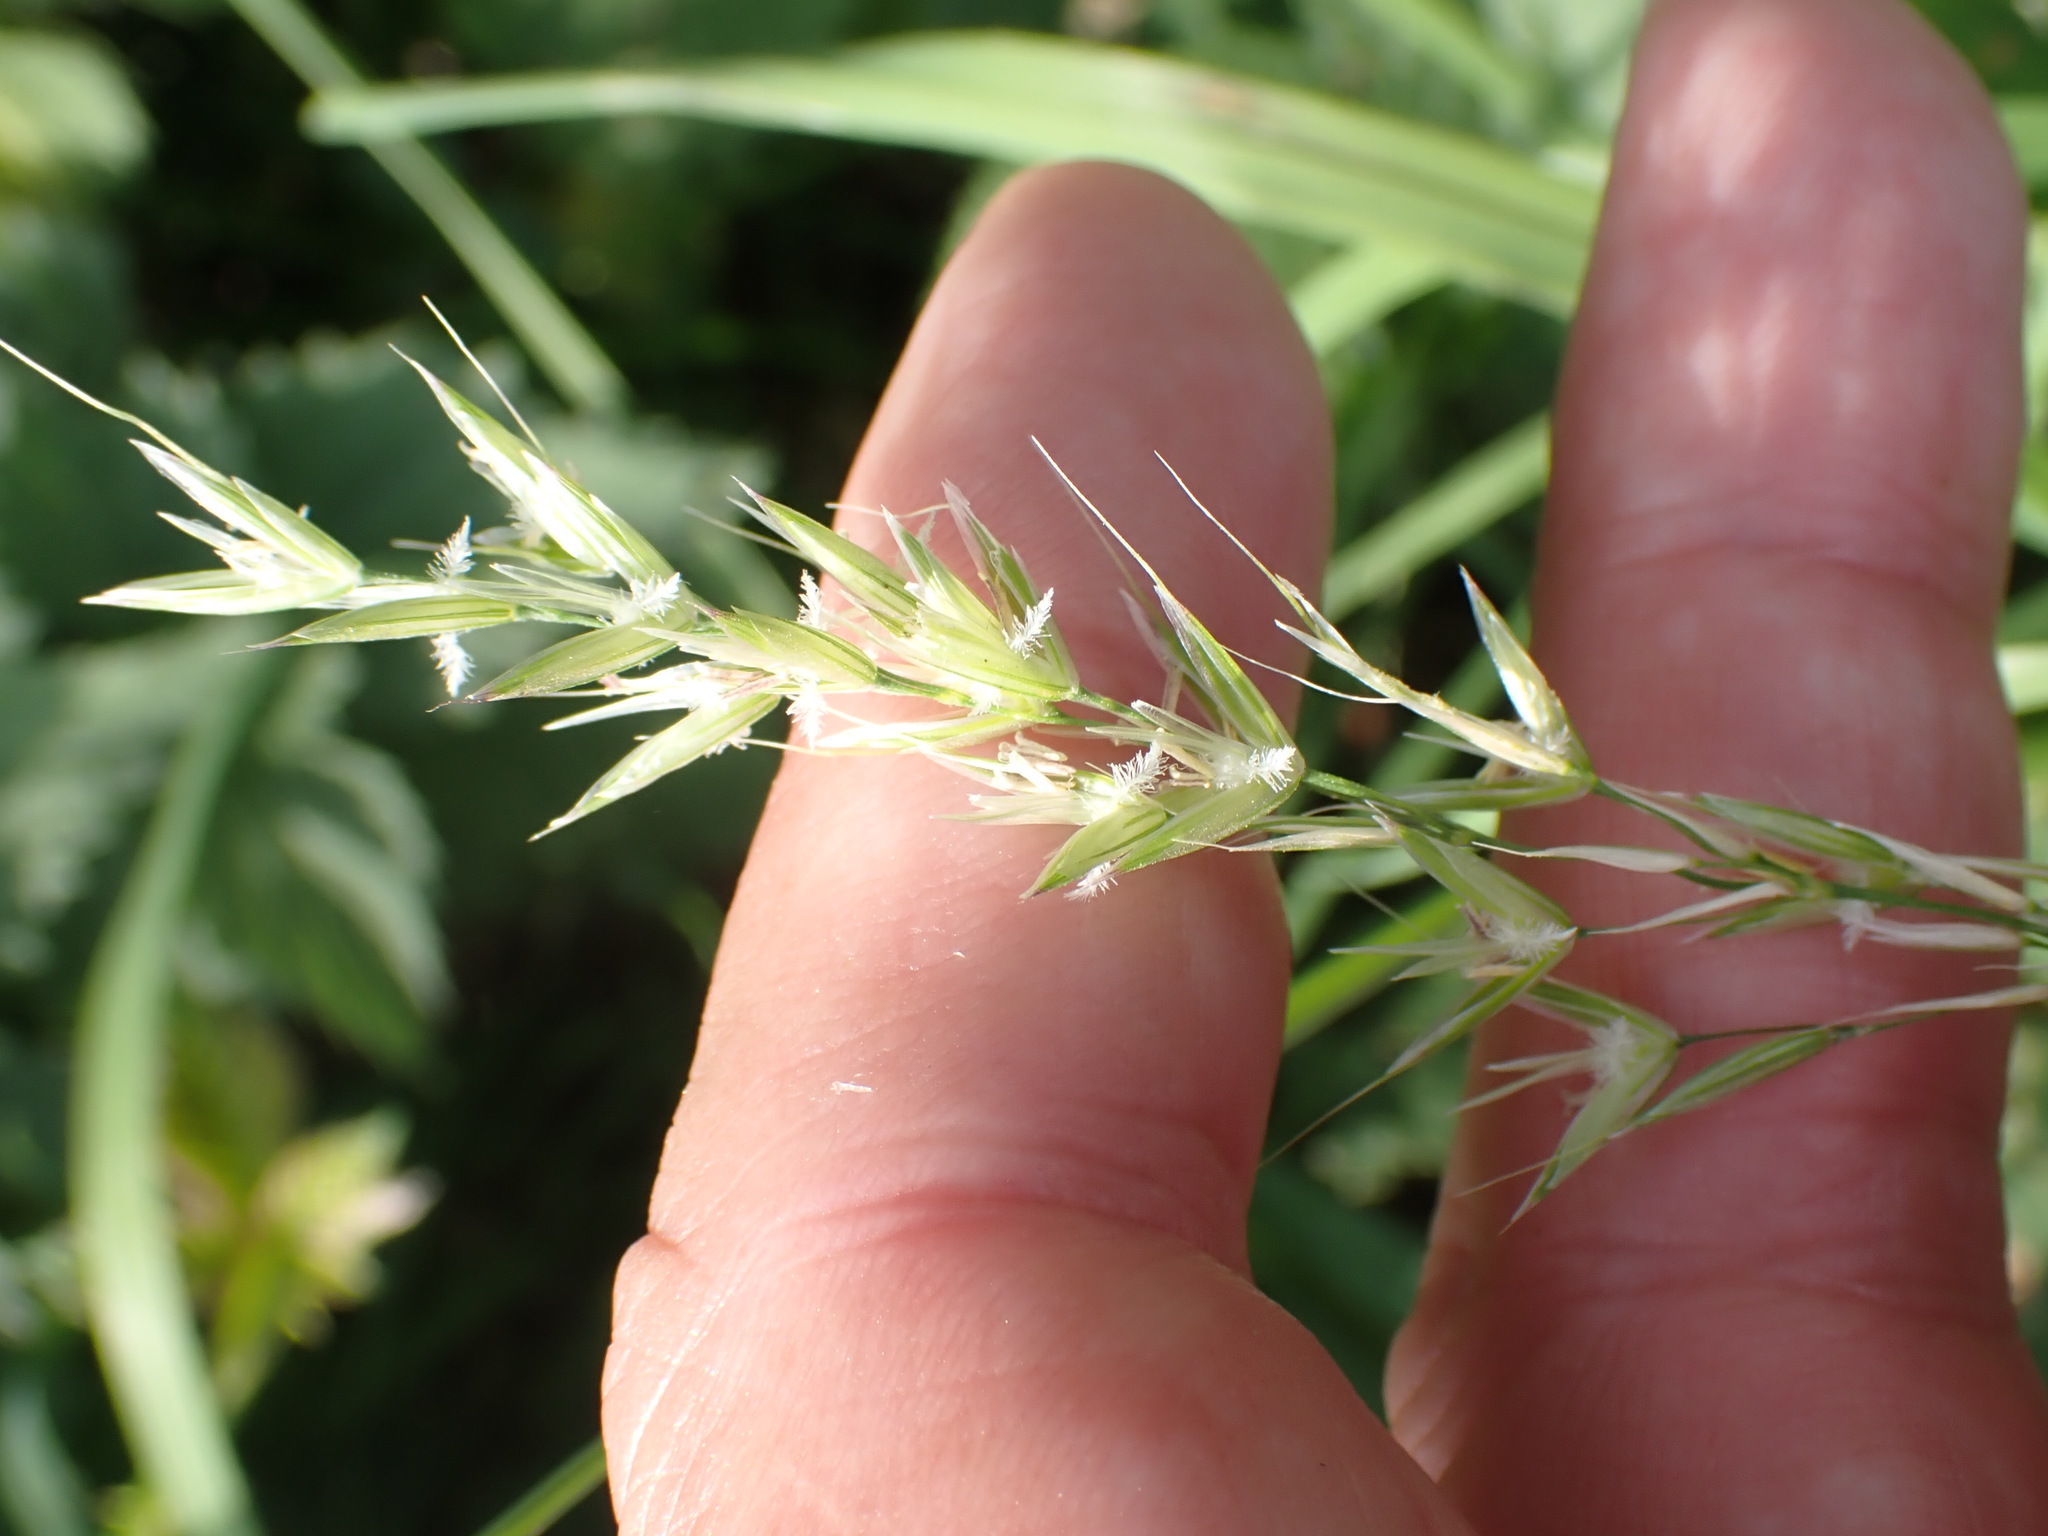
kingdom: Plantae
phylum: Tracheophyta
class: Liliopsida
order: Poales
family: Poaceae
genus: Arrhenatherum
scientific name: Arrhenatherum elatius
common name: Tall oatgrass
